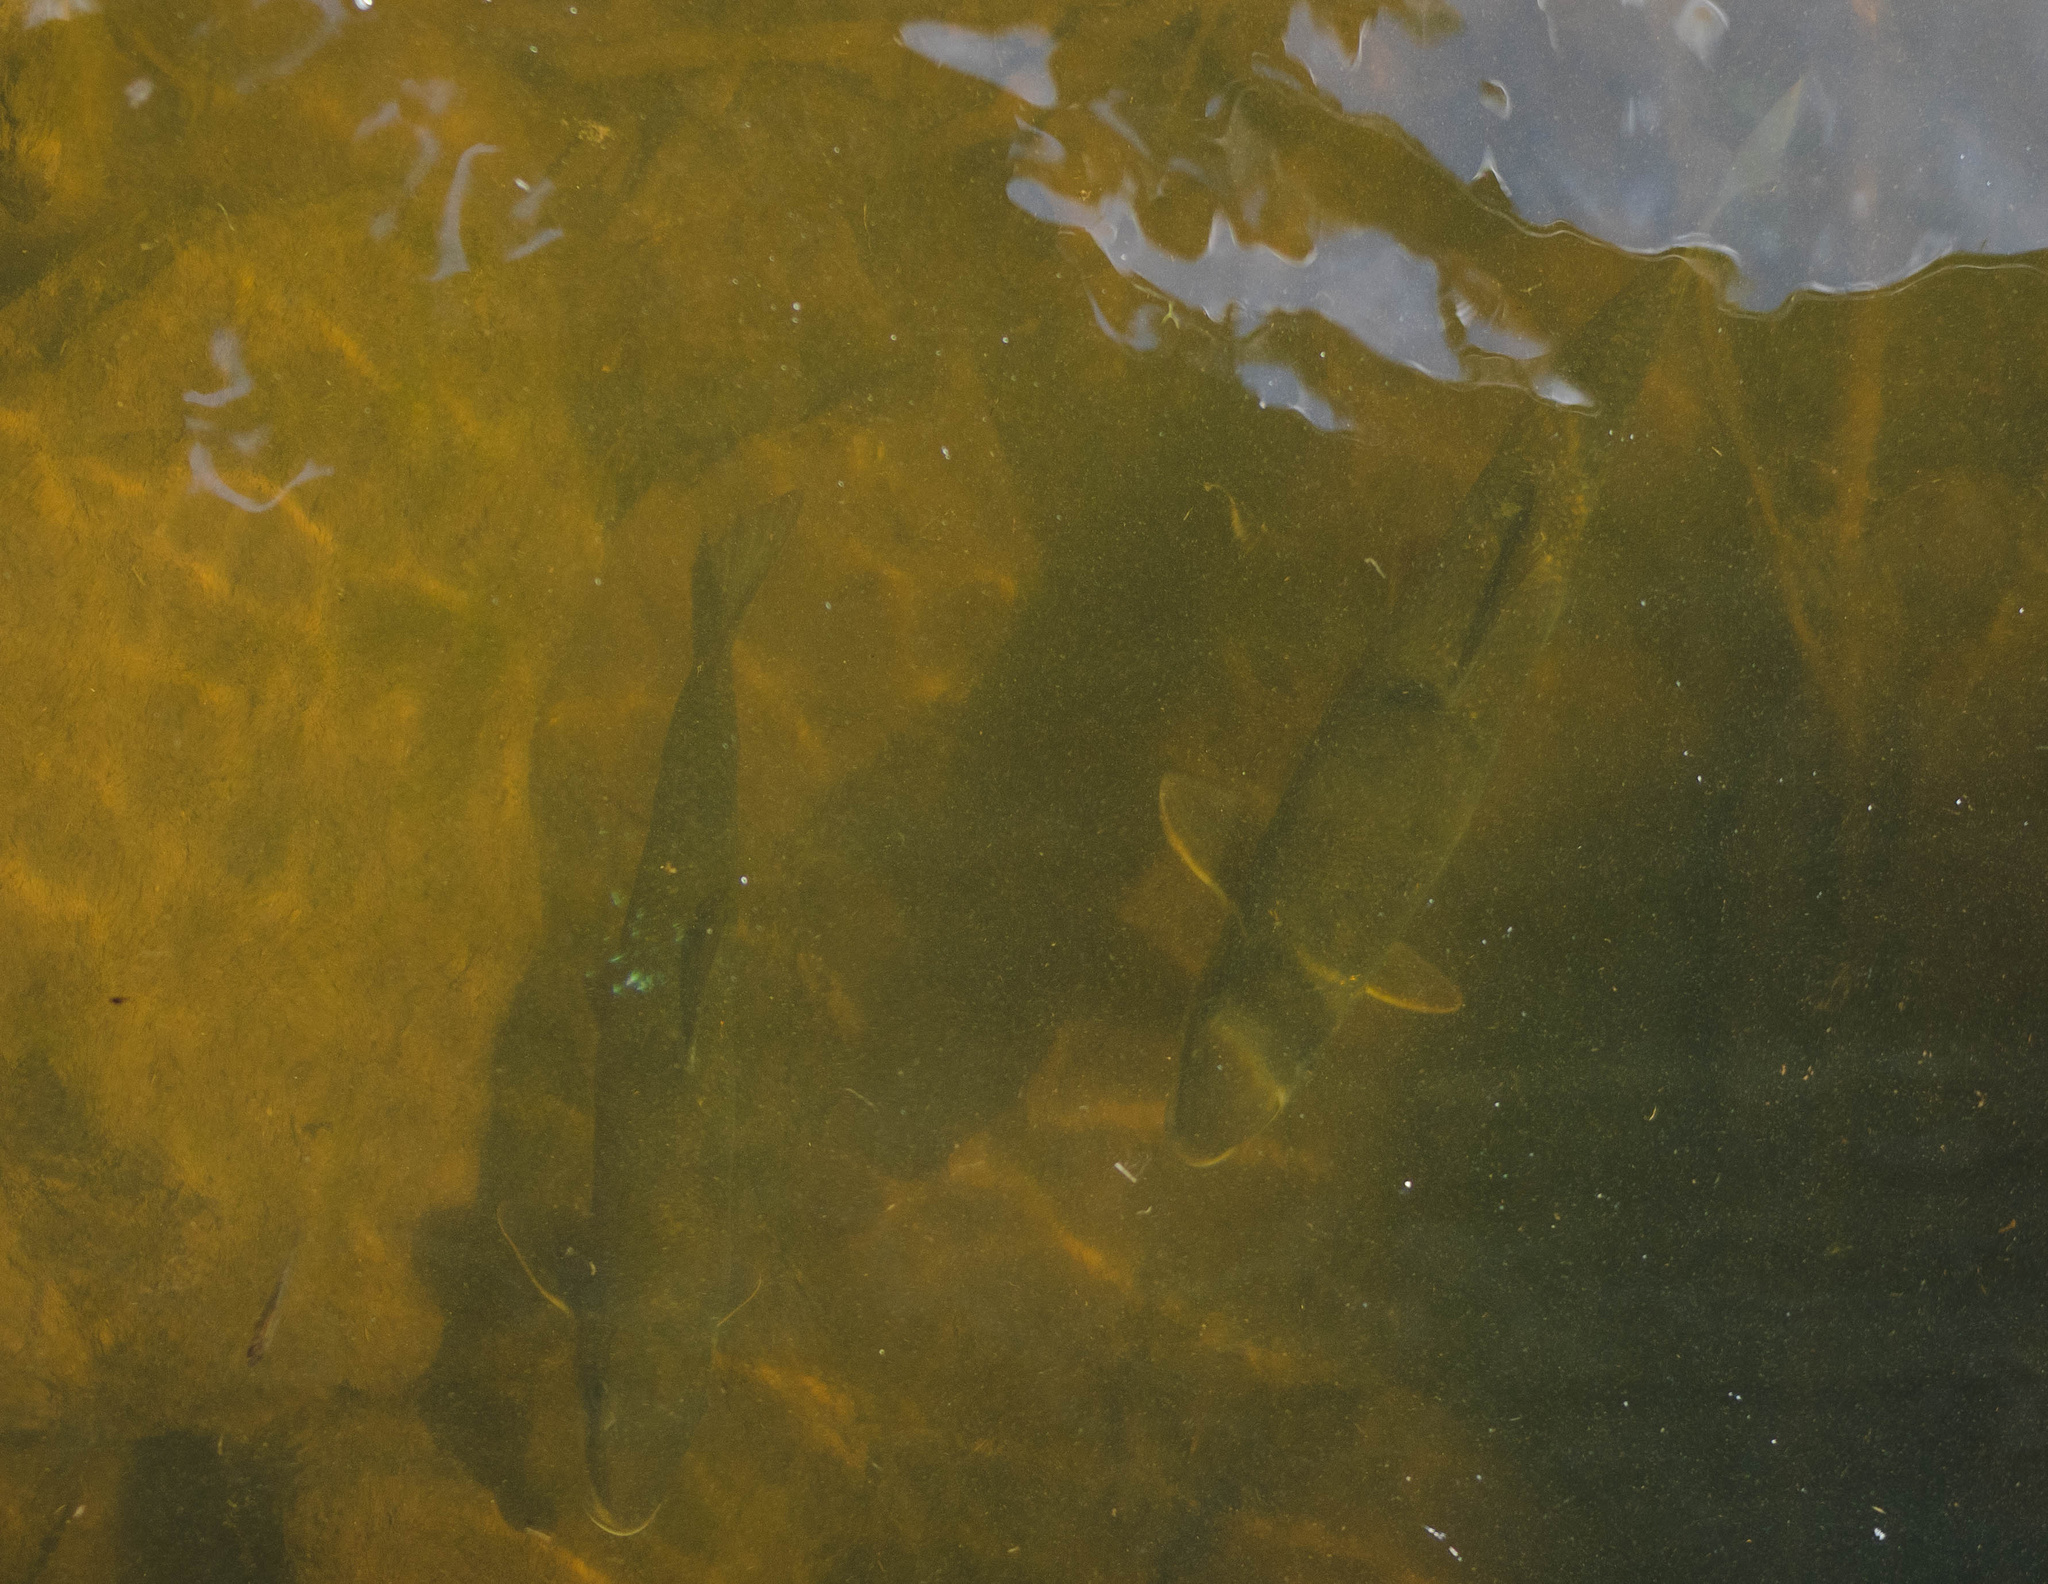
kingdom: Animalia
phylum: Chordata
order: Cypriniformes
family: Catostomidae
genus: Catostomus
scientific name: Catostomus catostomus
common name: Longnose sucker
